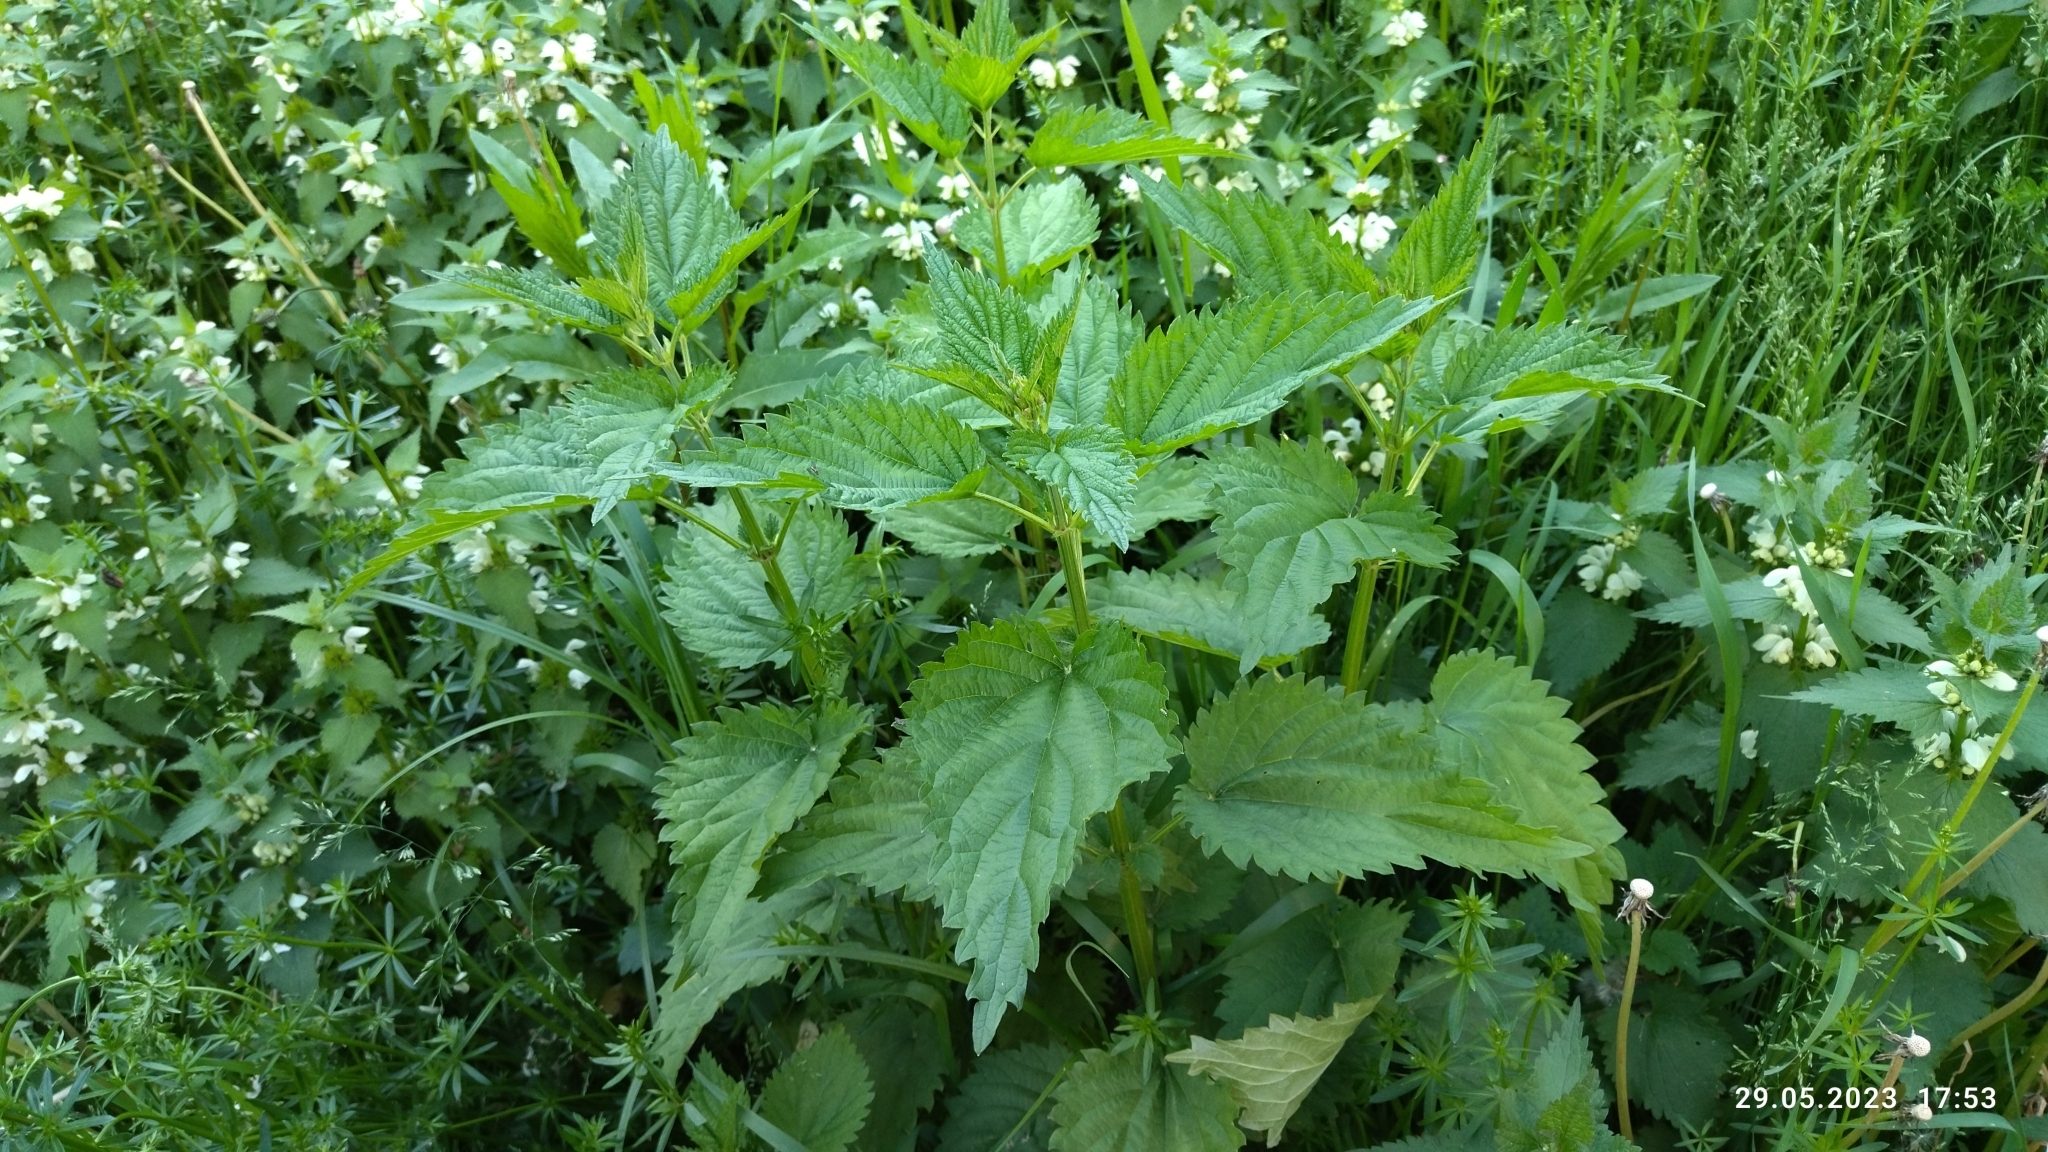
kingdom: Plantae
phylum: Tracheophyta
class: Magnoliopsida
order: Rosales
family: Urticaceae
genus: Urtica
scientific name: Urtica dioica
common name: Common nettle
